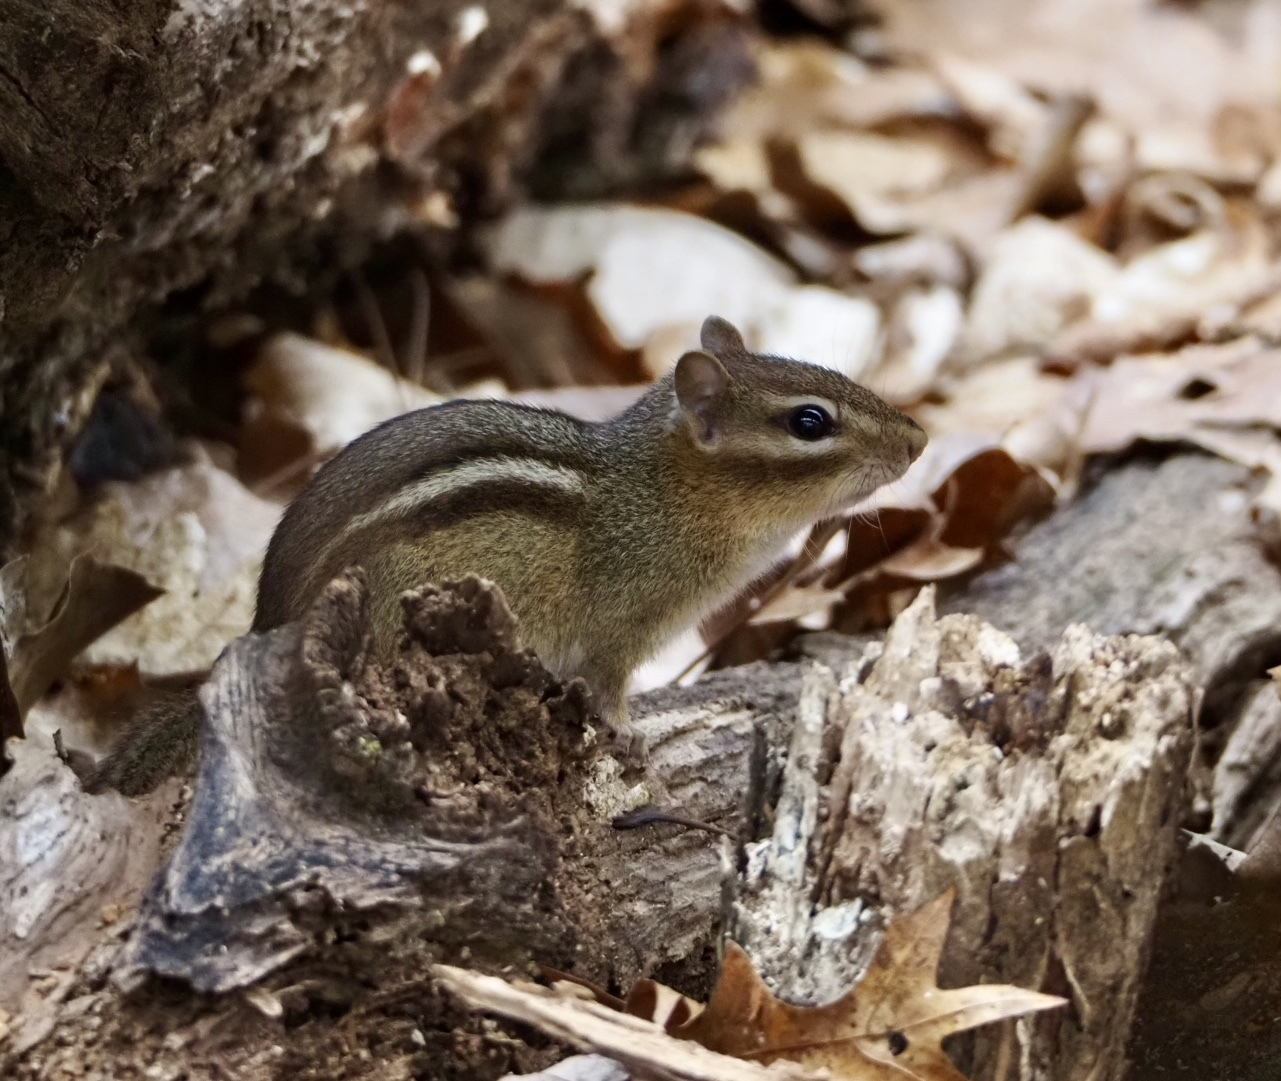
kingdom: Animalia
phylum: Chordata
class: Mammalia
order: Rodentia
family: Sciuridae
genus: Tamias
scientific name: Tamias striatus
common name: Eastern chipmunk
